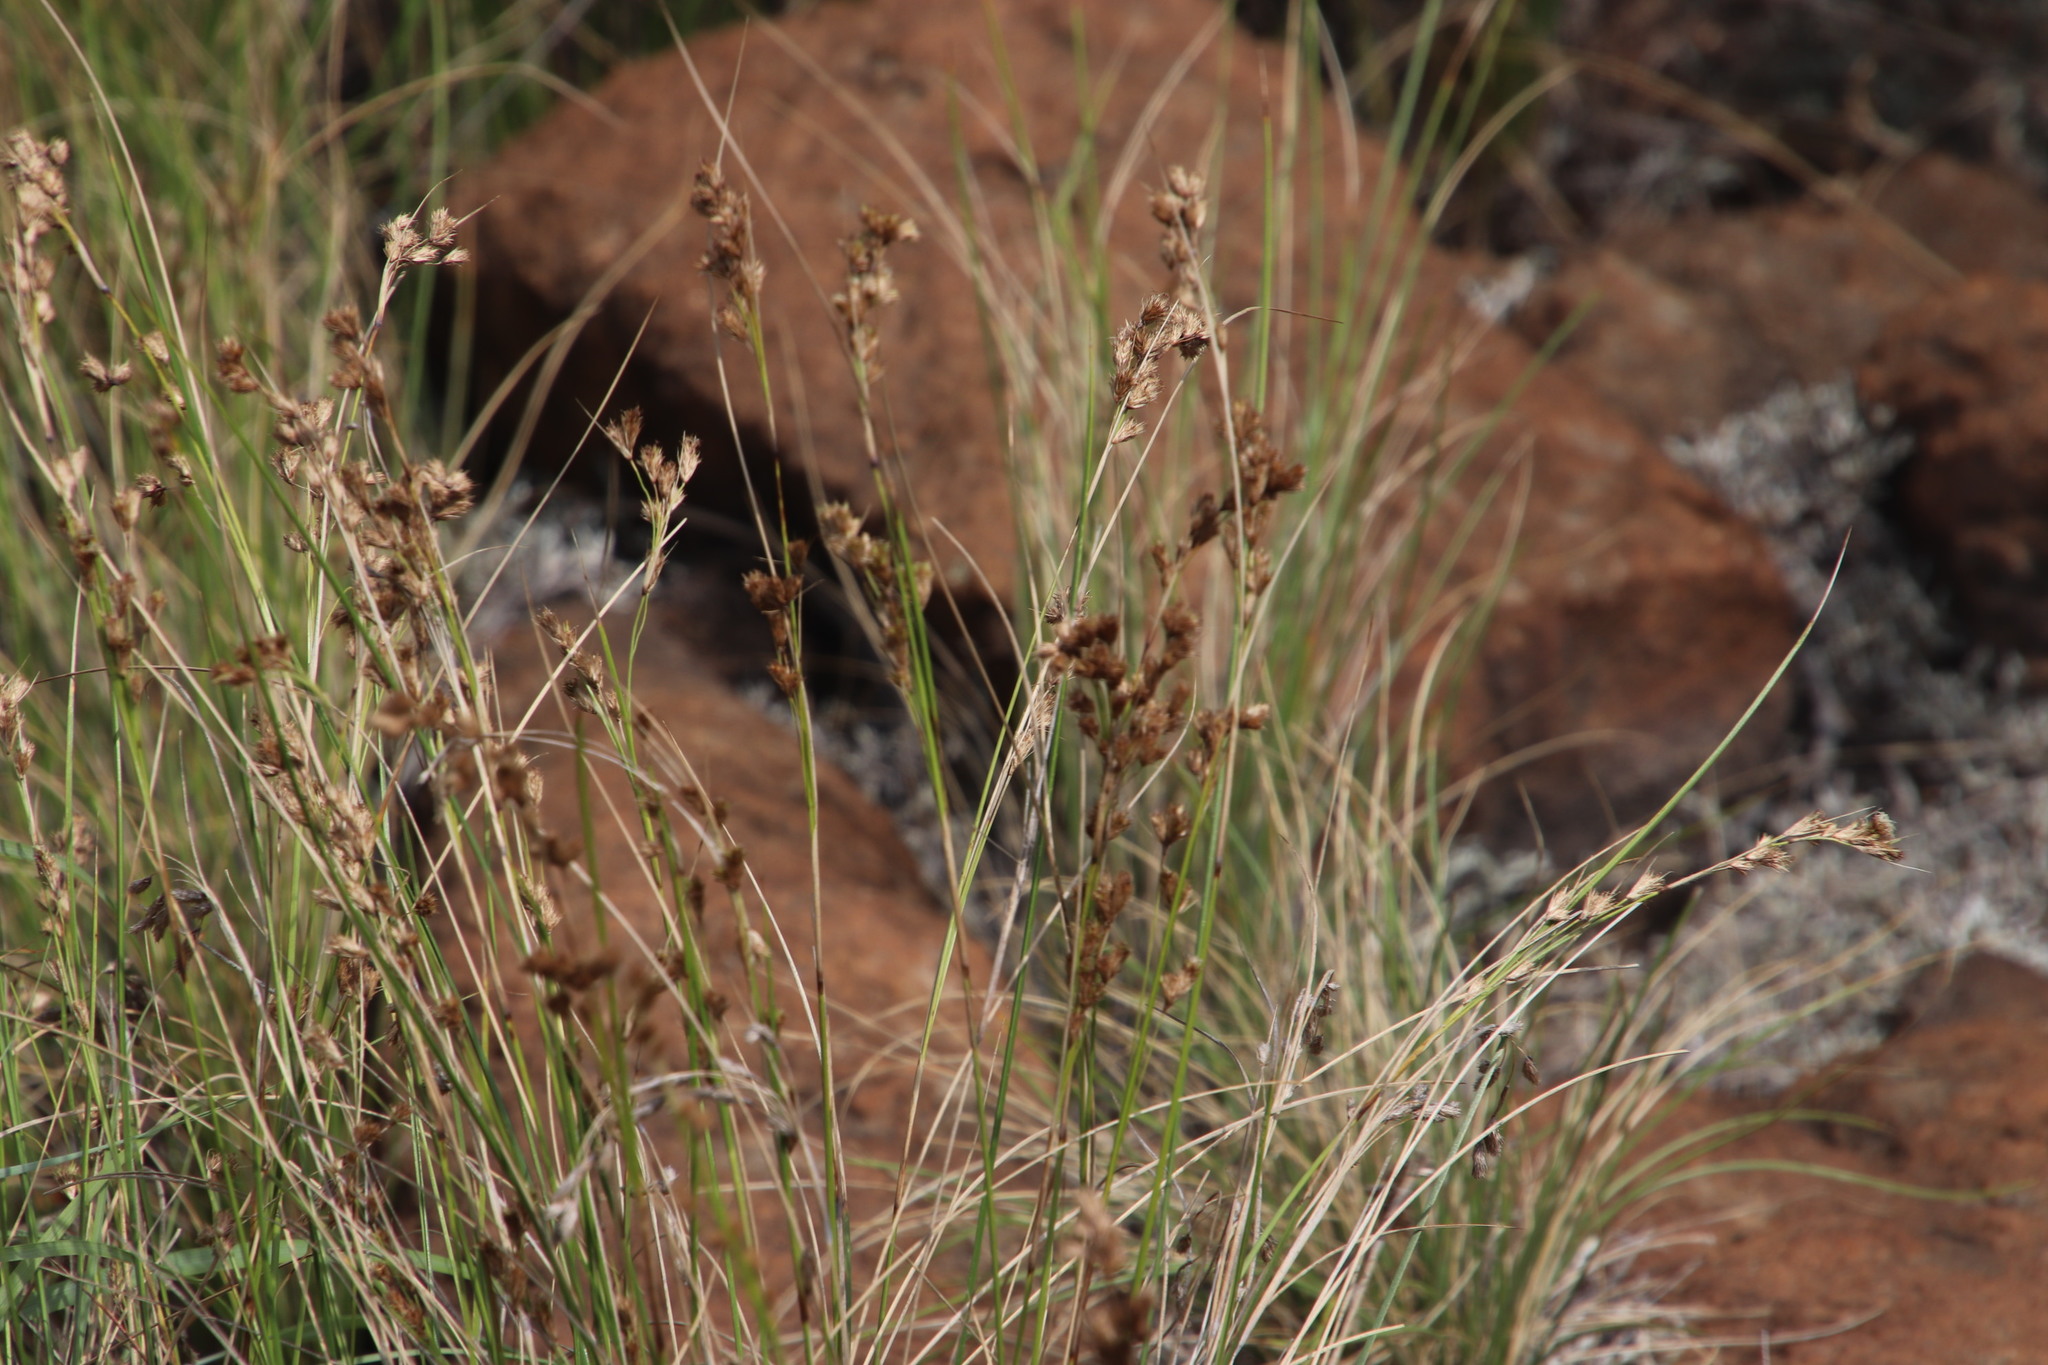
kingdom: Plantae
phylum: Tracheophyta
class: Liliopsida
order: Poales
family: Cyperaceae
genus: Coleochloa
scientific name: Coleochloa setifera
